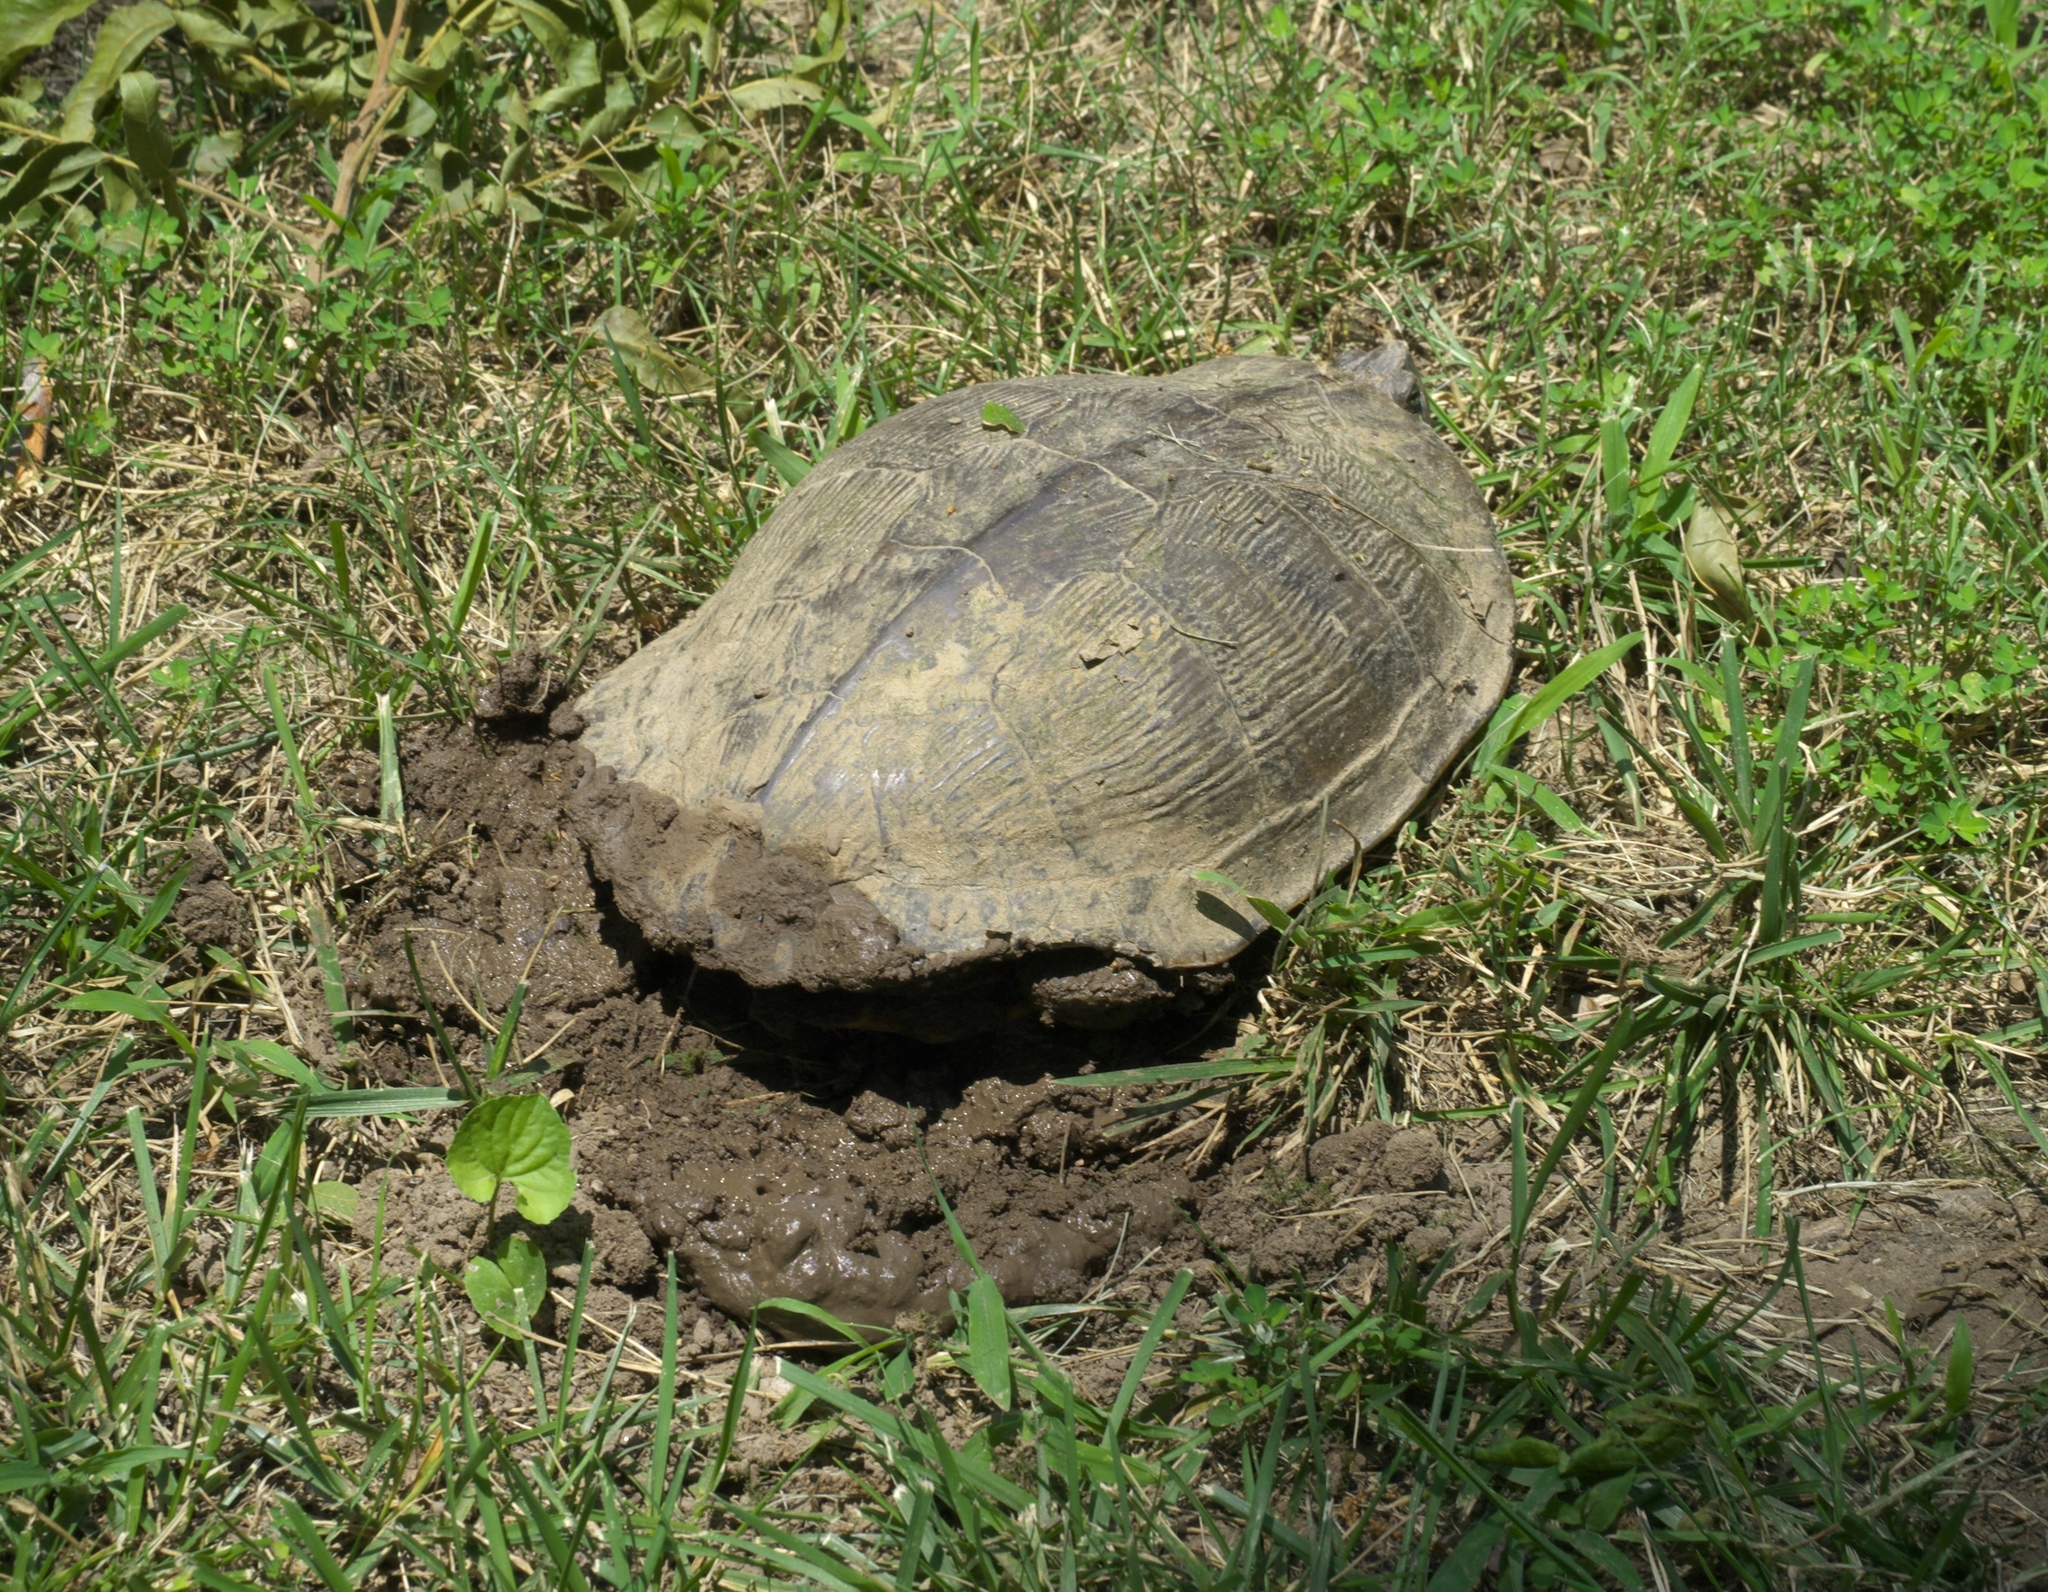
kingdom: Animalia
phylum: Chordata
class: Testudines
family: Emydidae
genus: Trachemys
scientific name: Trachemys scripta
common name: Slider
